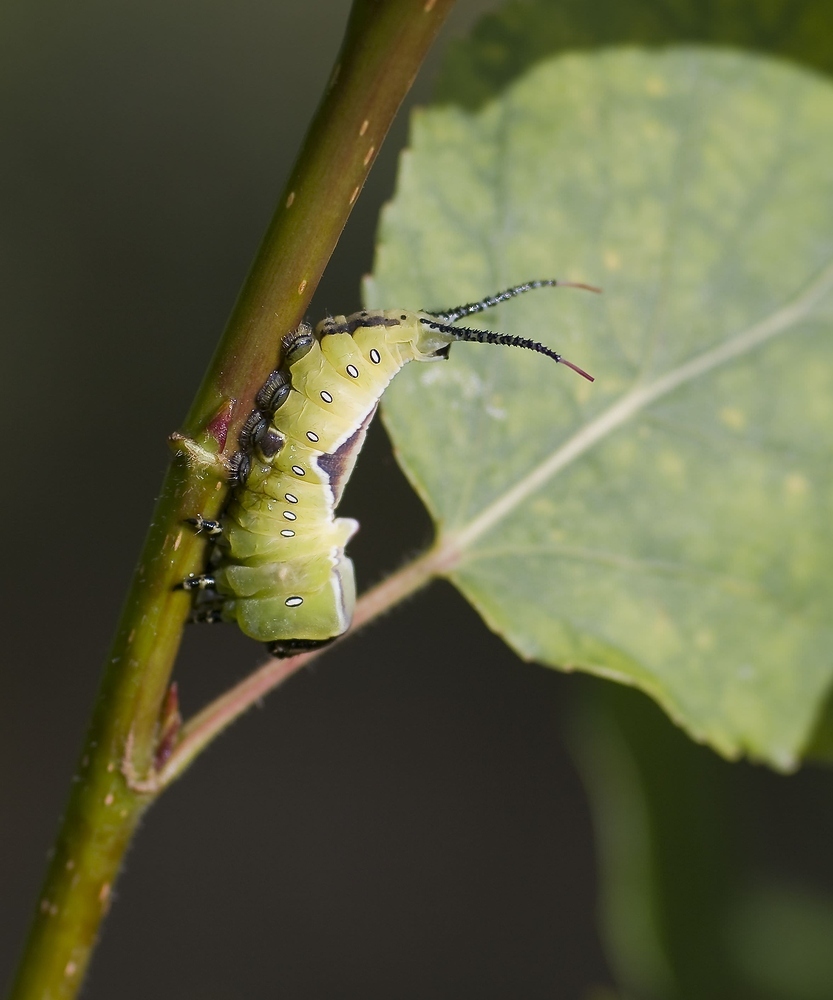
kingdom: Animalia
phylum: Arthropoda
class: Insecta
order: Lepidoptera
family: Notodontidae
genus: Cerura
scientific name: Cerura vinula
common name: Puss moth
